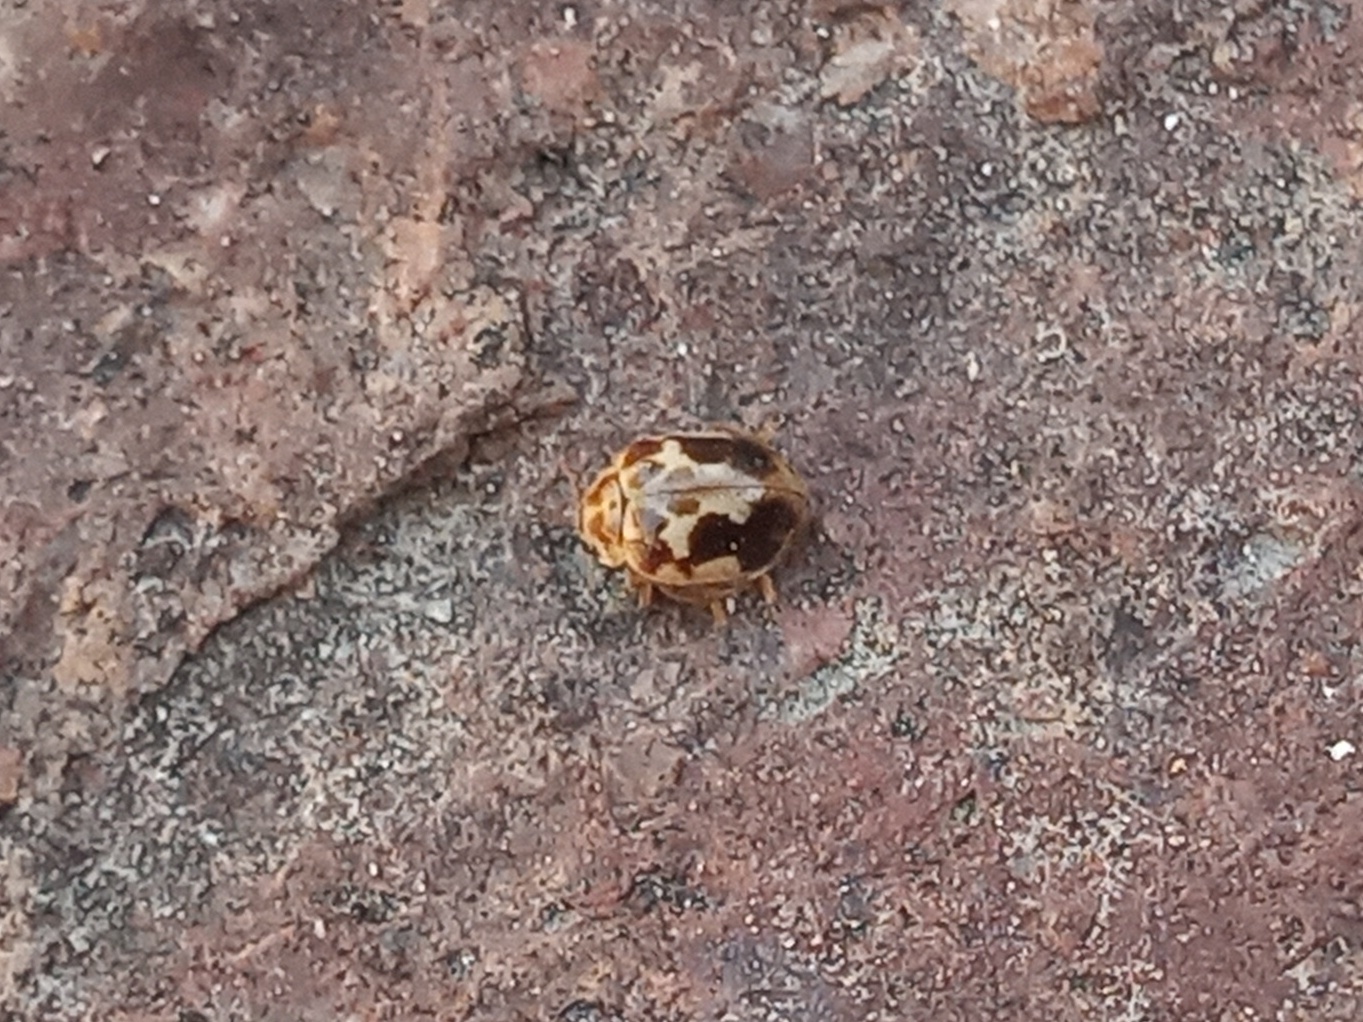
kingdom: Animalia
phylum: Arthropoda
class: Insecta
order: Coleoptera
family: Coccinellidae
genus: Psyllobora
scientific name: Psyllobora renifer
